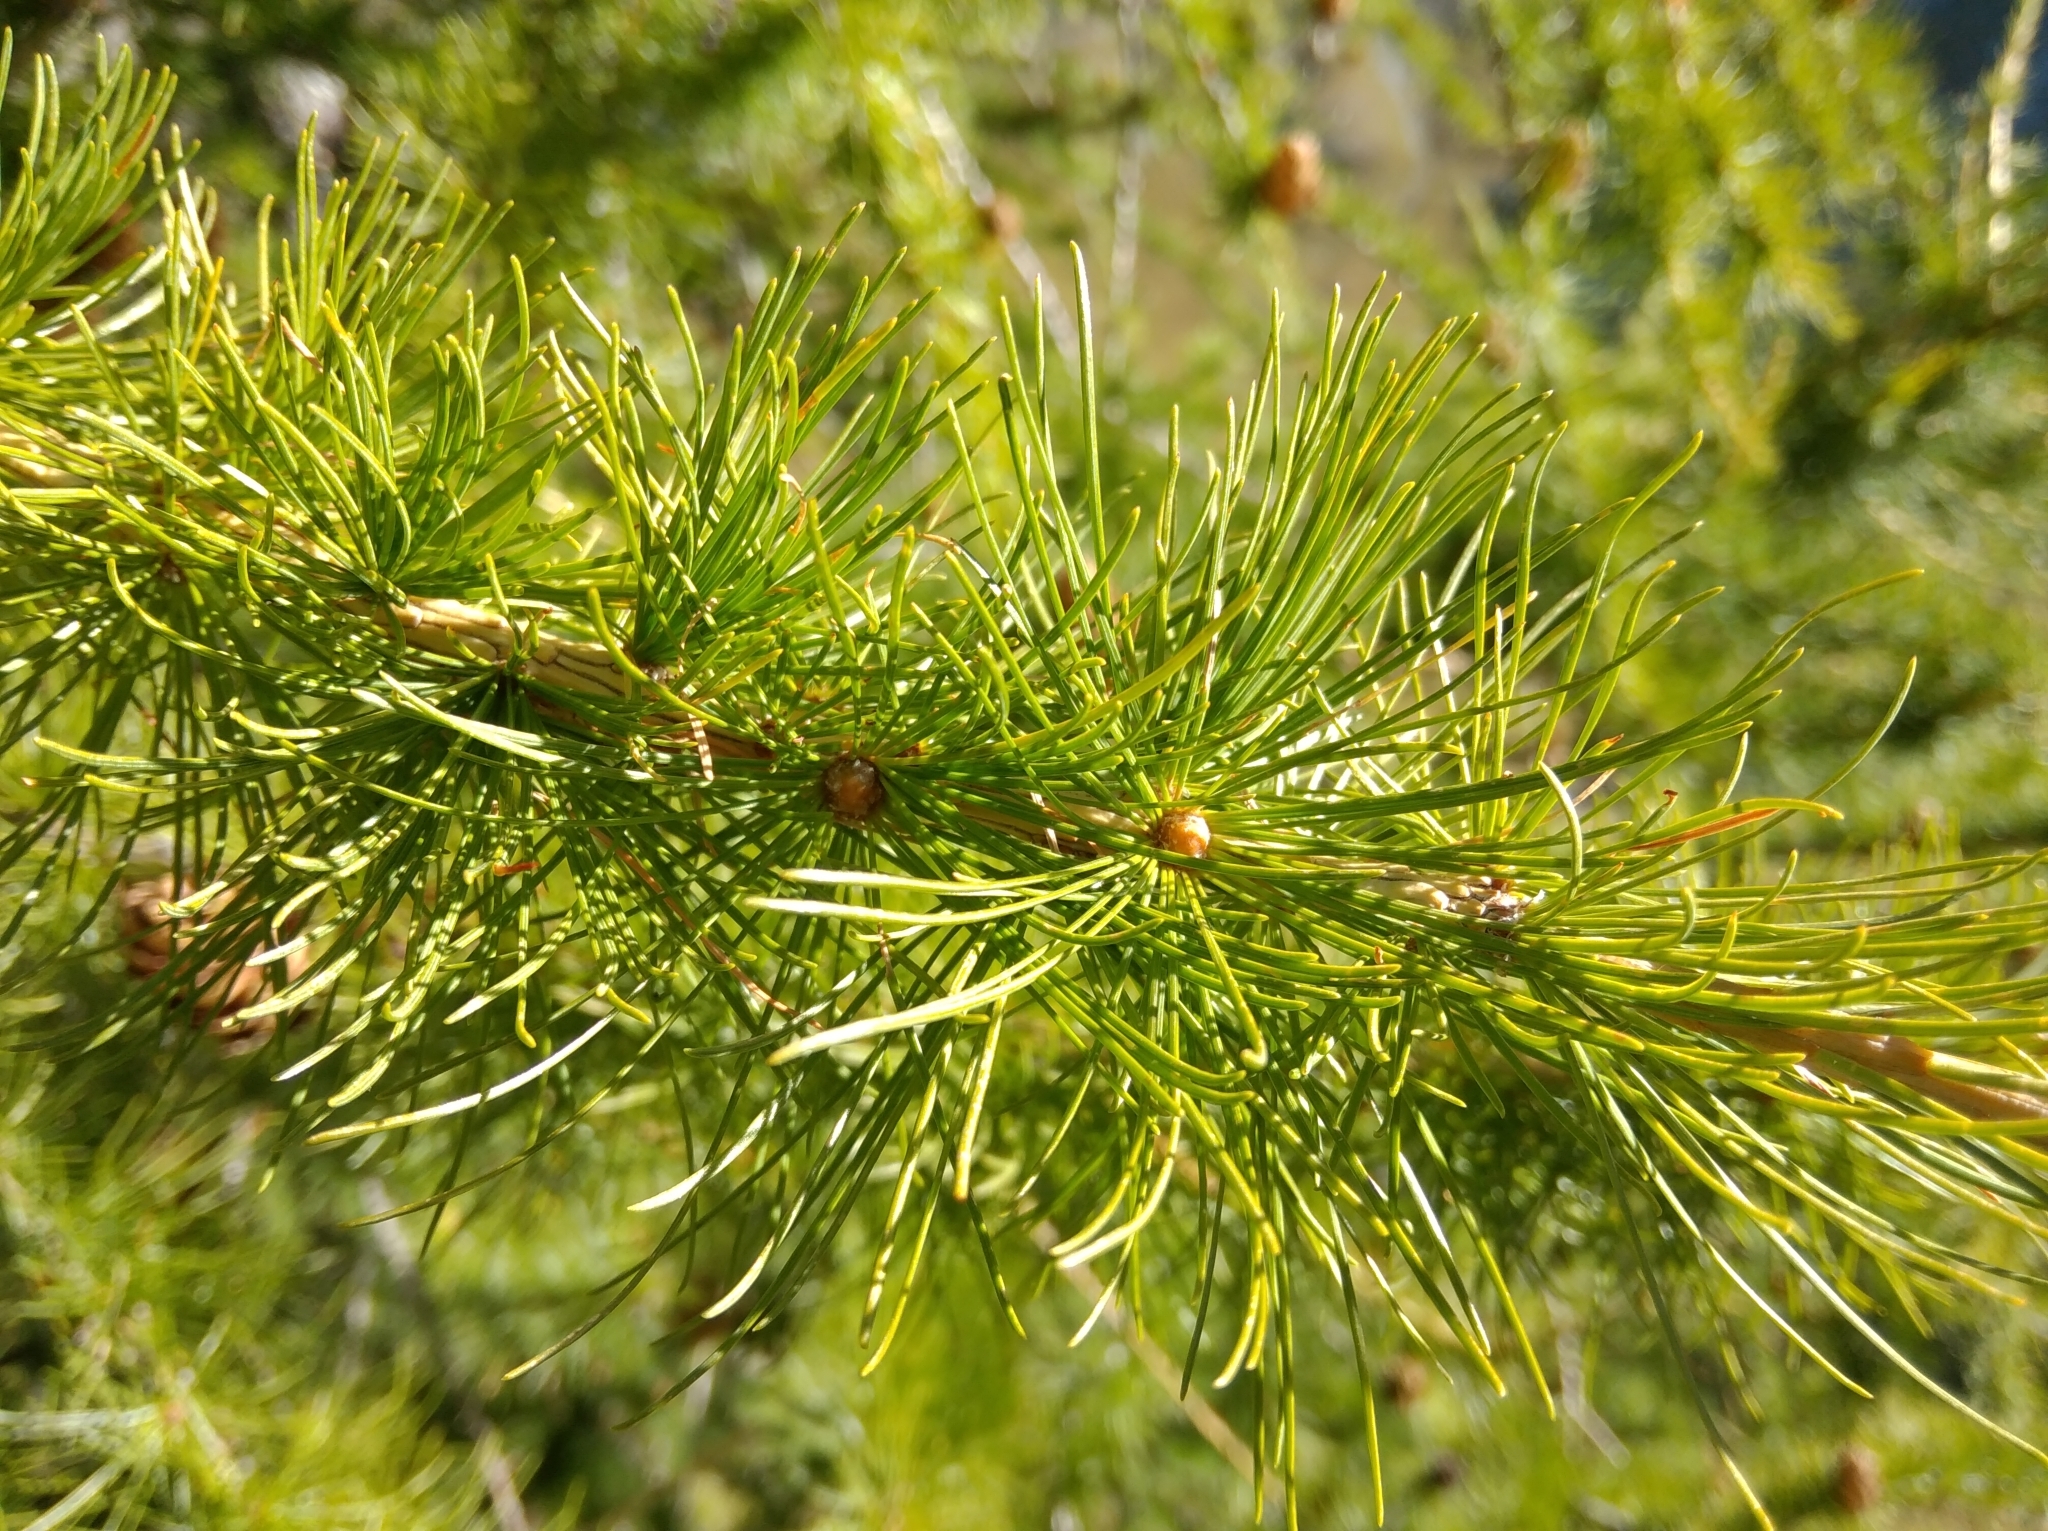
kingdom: Plantae
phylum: Tracheophyta
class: Pinopsida
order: Pinales
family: Pinaceae
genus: Larix
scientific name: Larix decidua
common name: European larch
